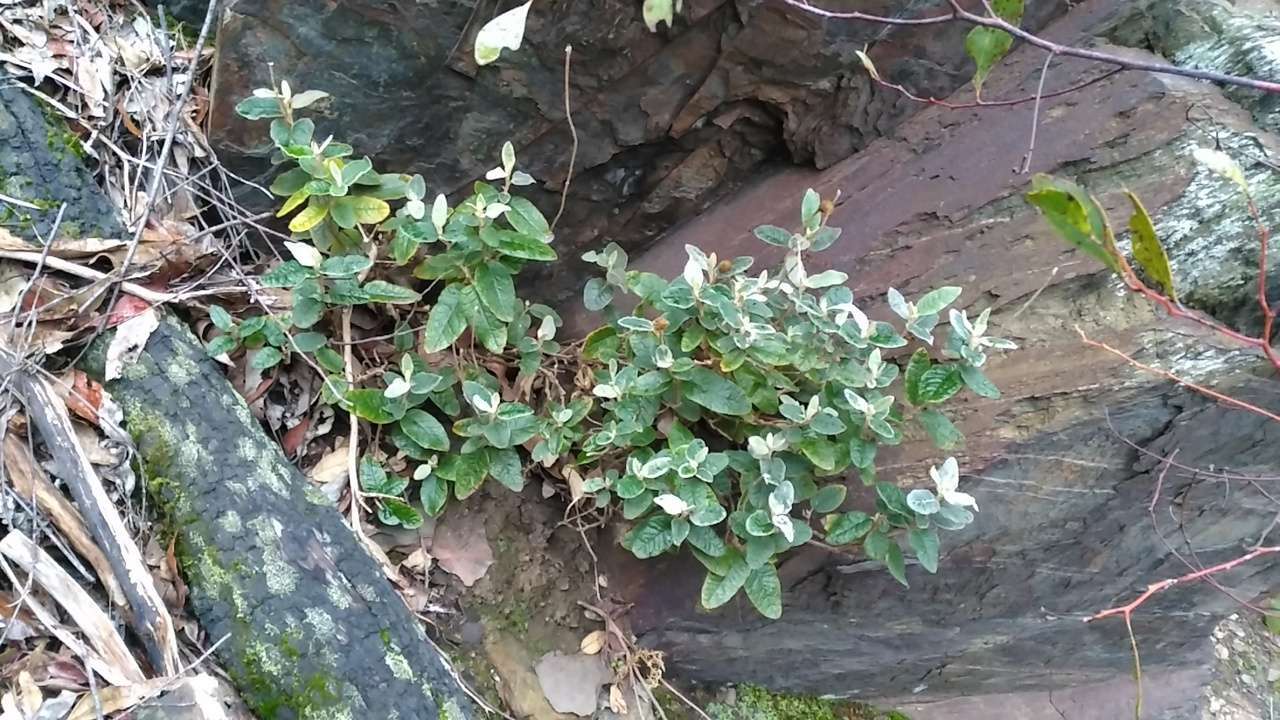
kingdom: Plantae
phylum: Tracheophyta
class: Magnoliopsida
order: Asterales
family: Asteraceae
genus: Olearia
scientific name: Olearia pannosa
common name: Velvet daisybush
